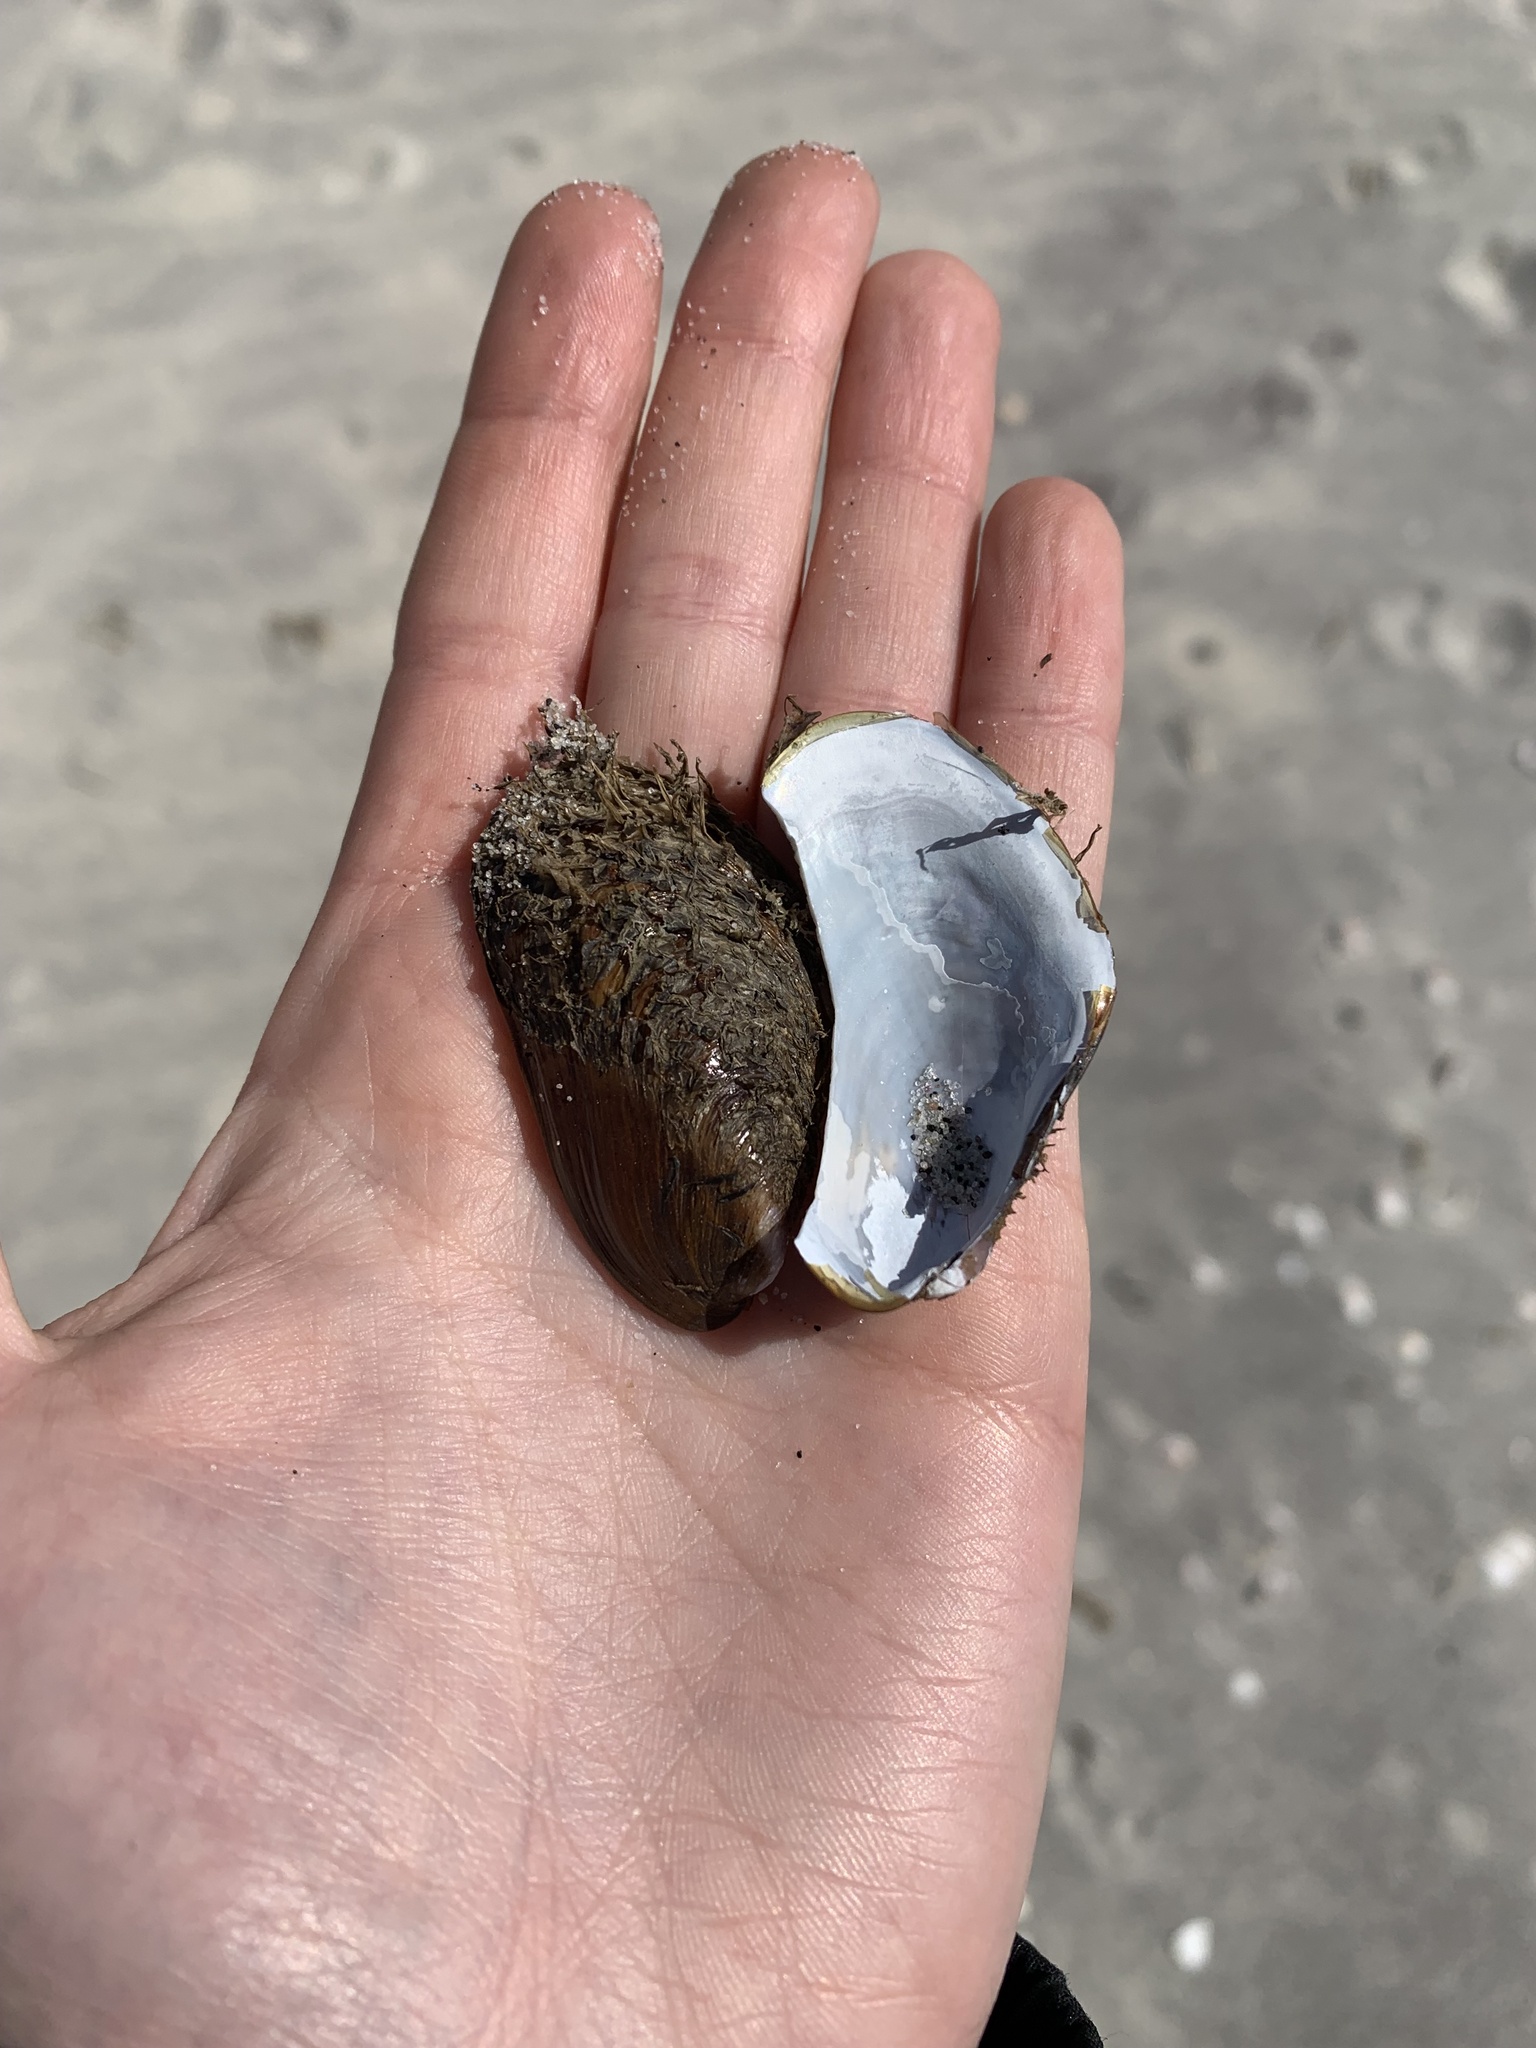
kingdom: Animalia
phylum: Mollusca
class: Bivalvia
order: Mytilida
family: Mytilidae
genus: Modiolus
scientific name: Modiolus modiolus
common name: Horse-mussel
